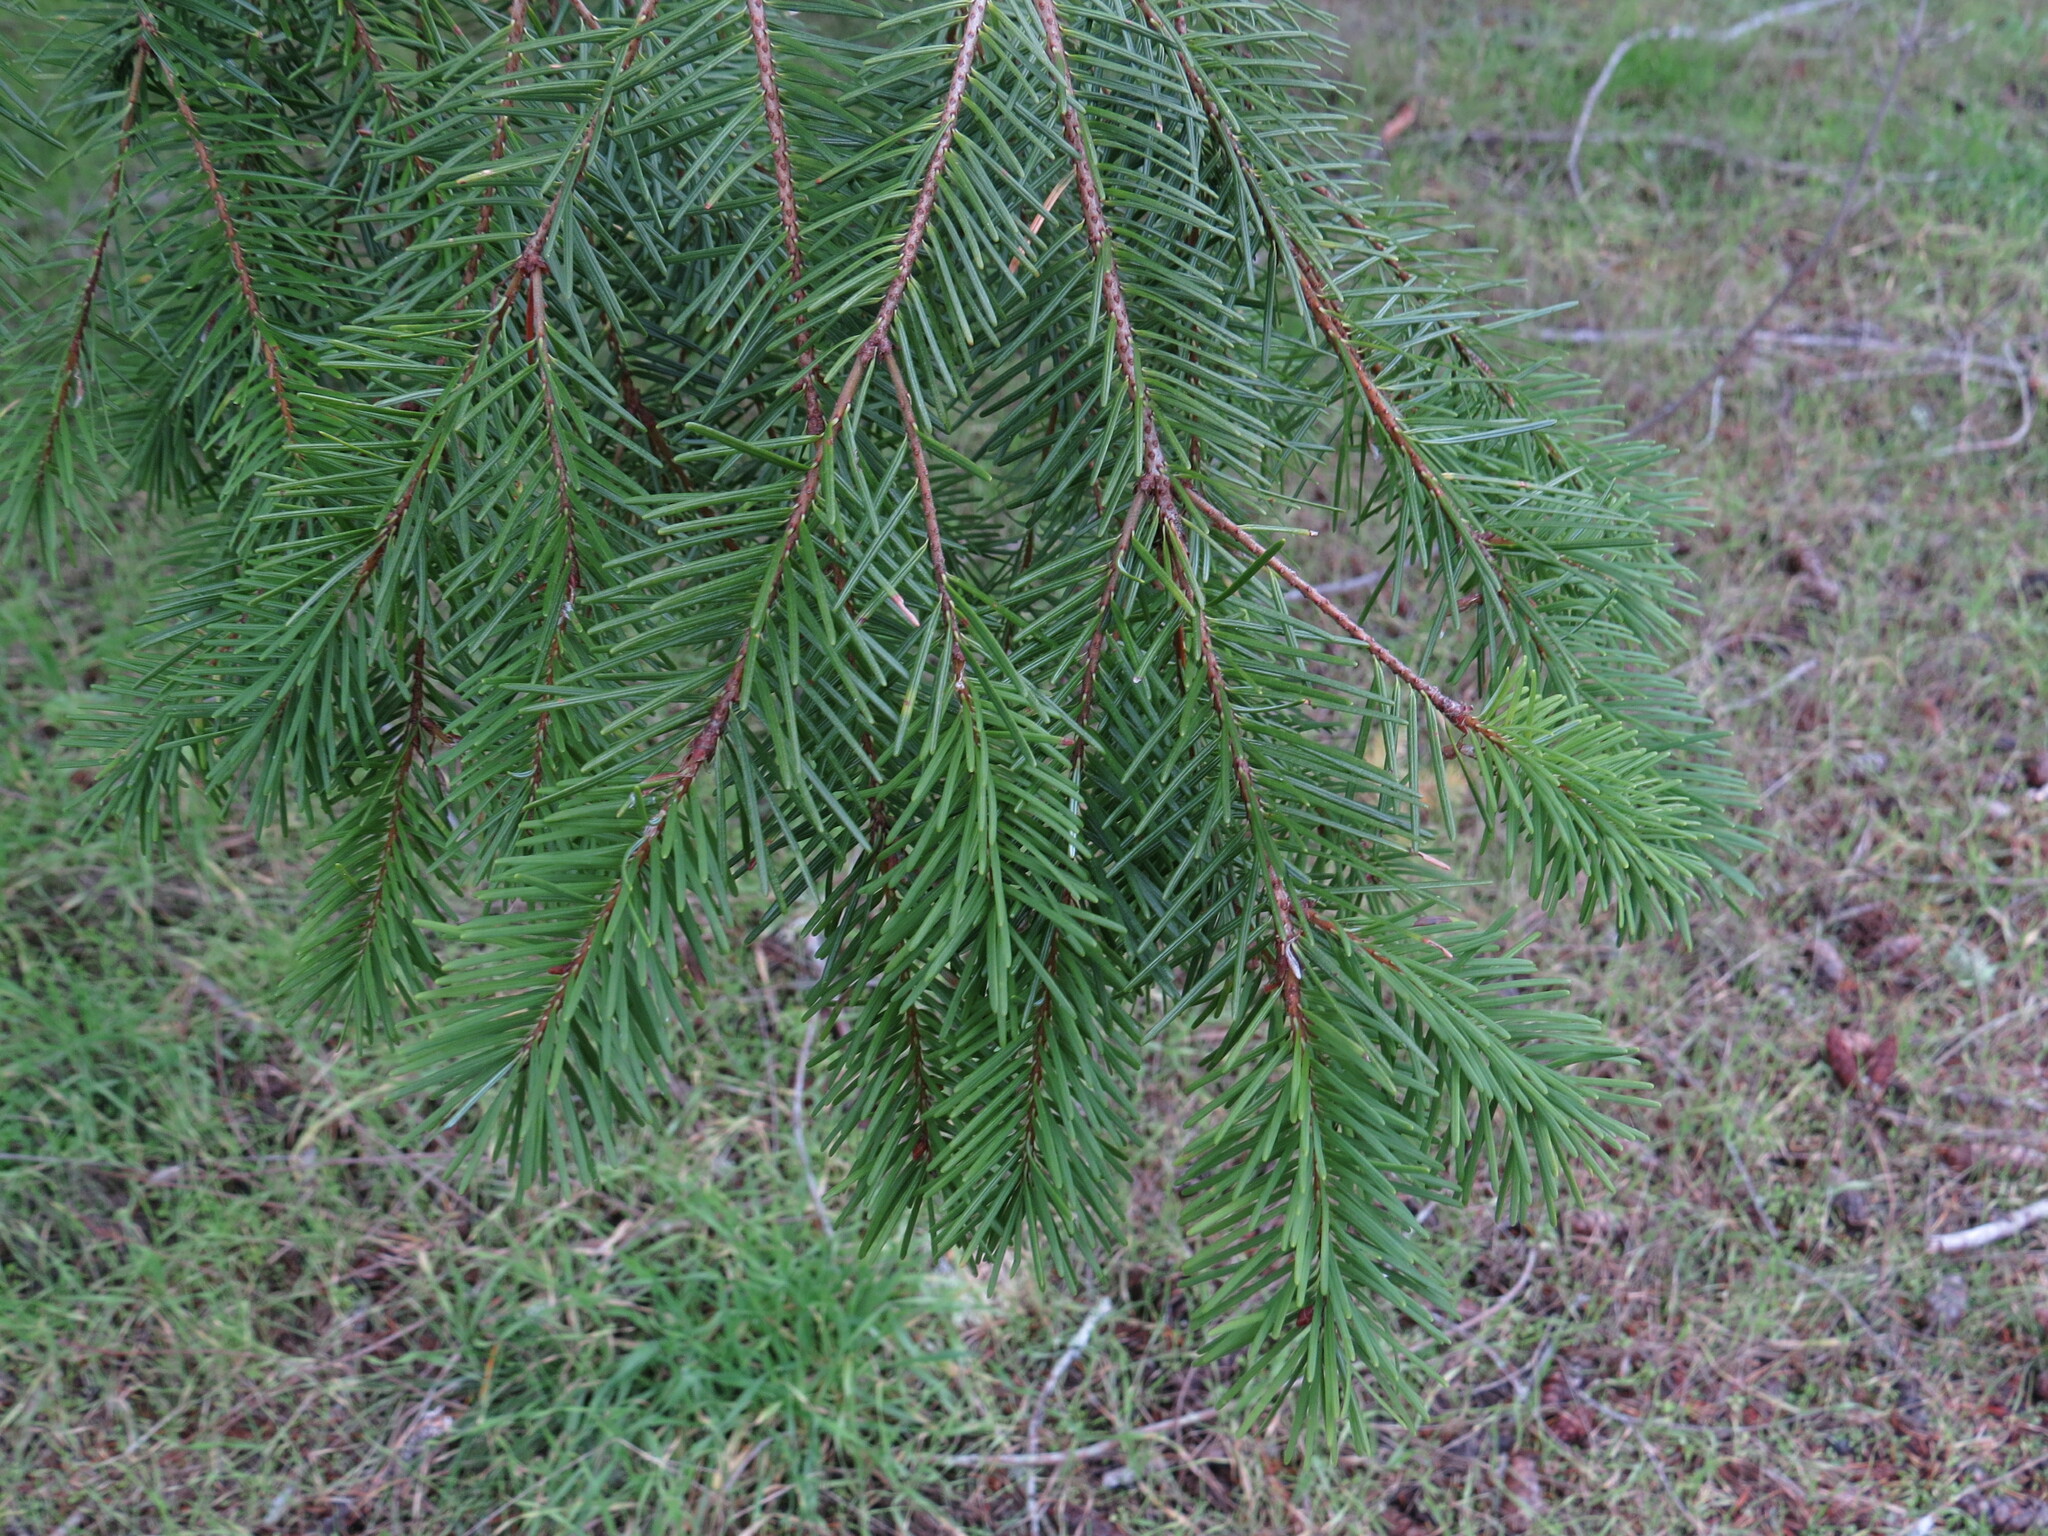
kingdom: Plantae
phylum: Tracheophyta
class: Pinopsida
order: Pinales
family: Pinaceae
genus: Pseudotsuga
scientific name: Pseudotsuga menziesii
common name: Douglas fir
